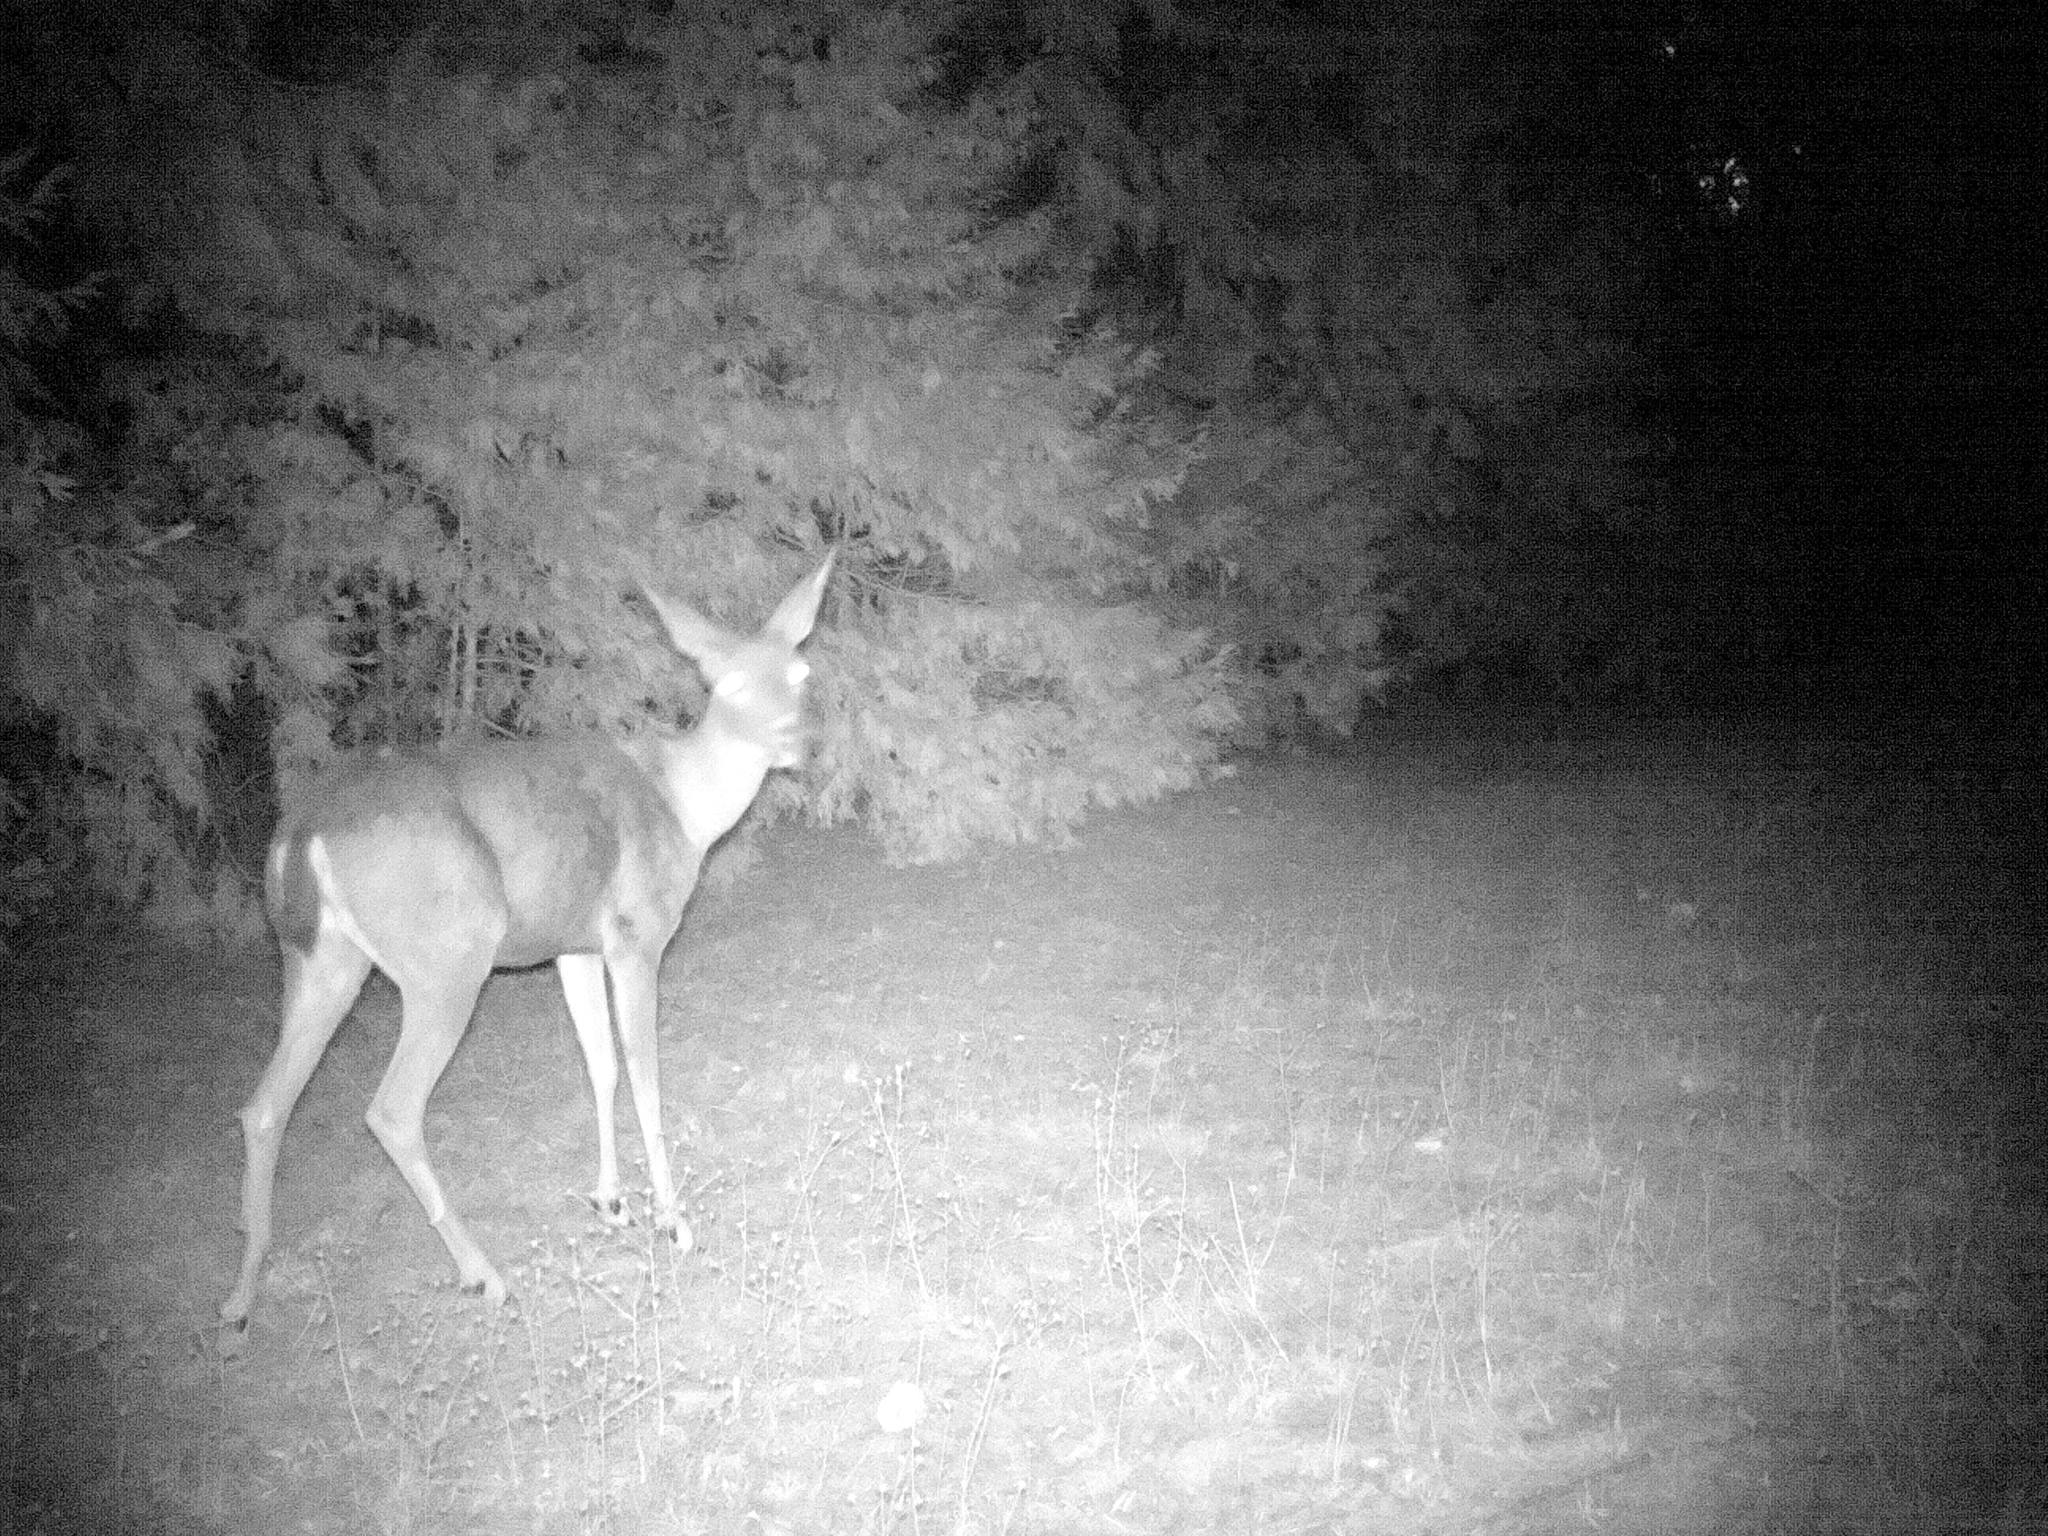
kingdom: Animalia
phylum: Chordata
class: Mammalia
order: Artiodactyla
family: Cervidae
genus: Odocoileus
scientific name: Odocoileus hemionus
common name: Mule deer
